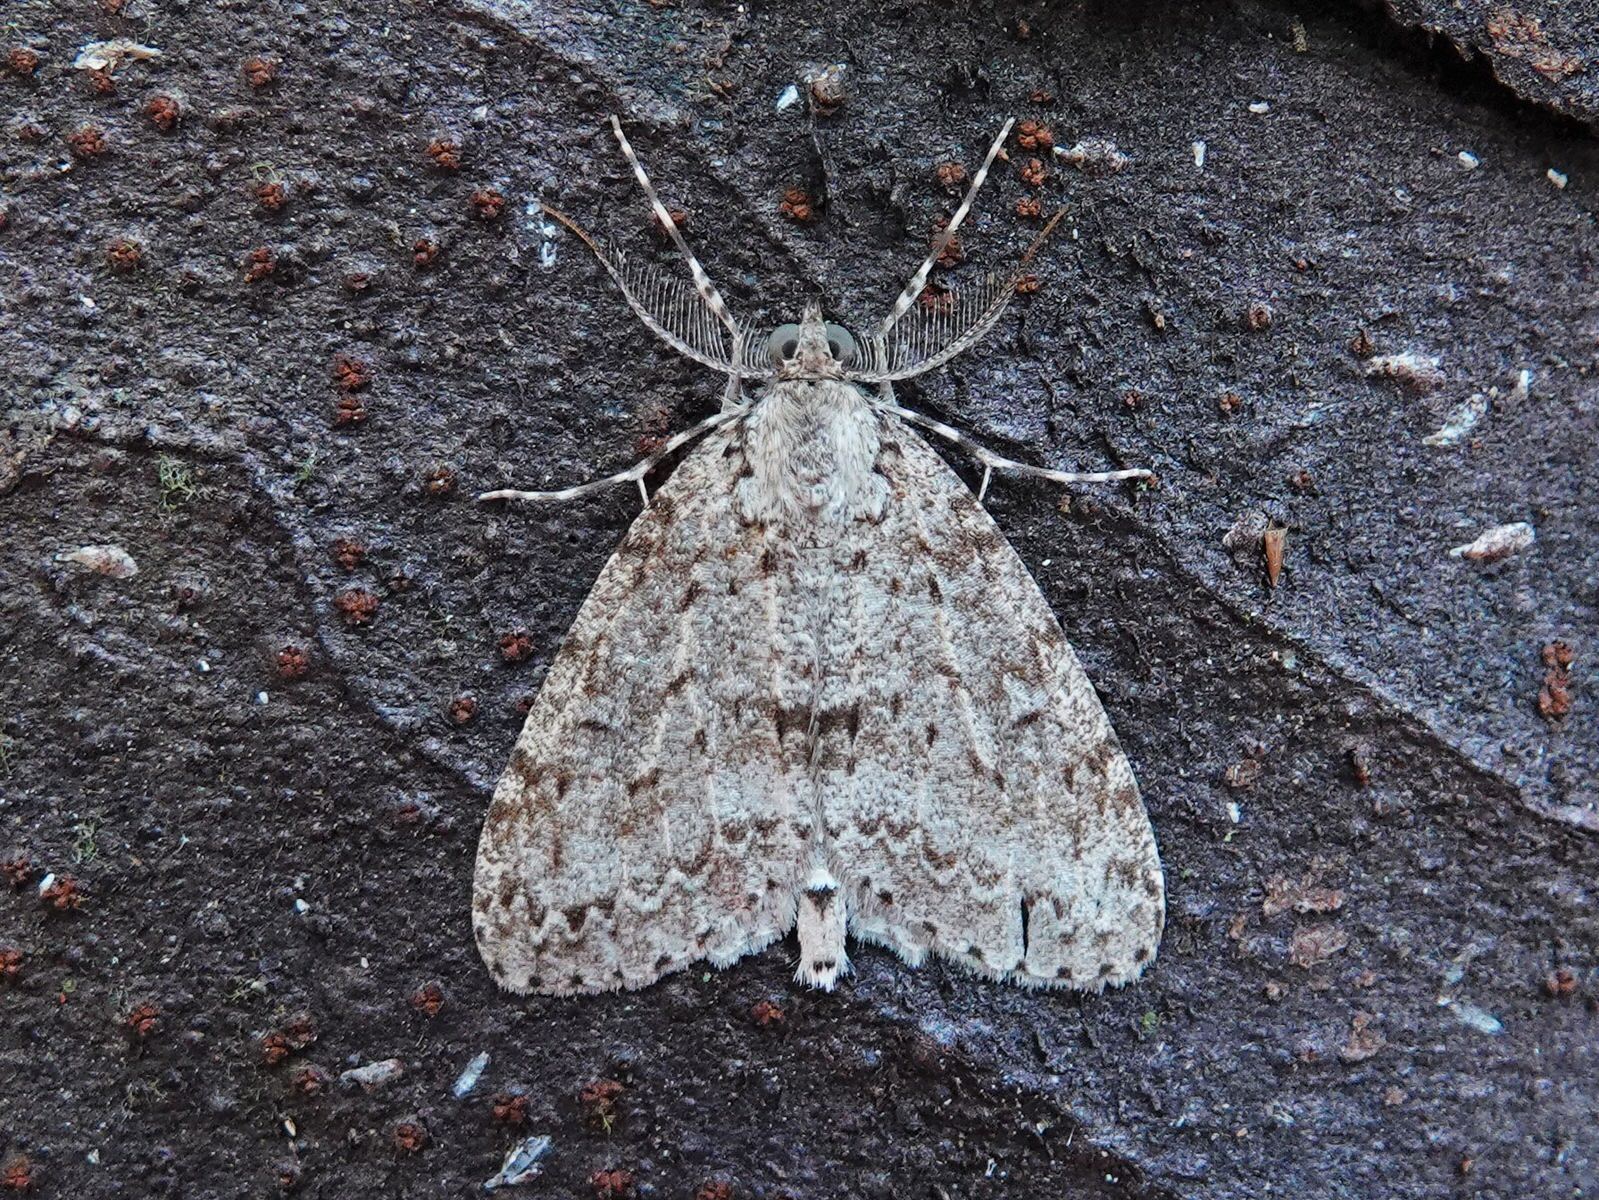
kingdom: Animalia
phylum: Arthropoda
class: Insecta
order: Lepidoptera
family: Geometridae
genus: Pseudocoremia
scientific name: Pseudocoremia fenerata
